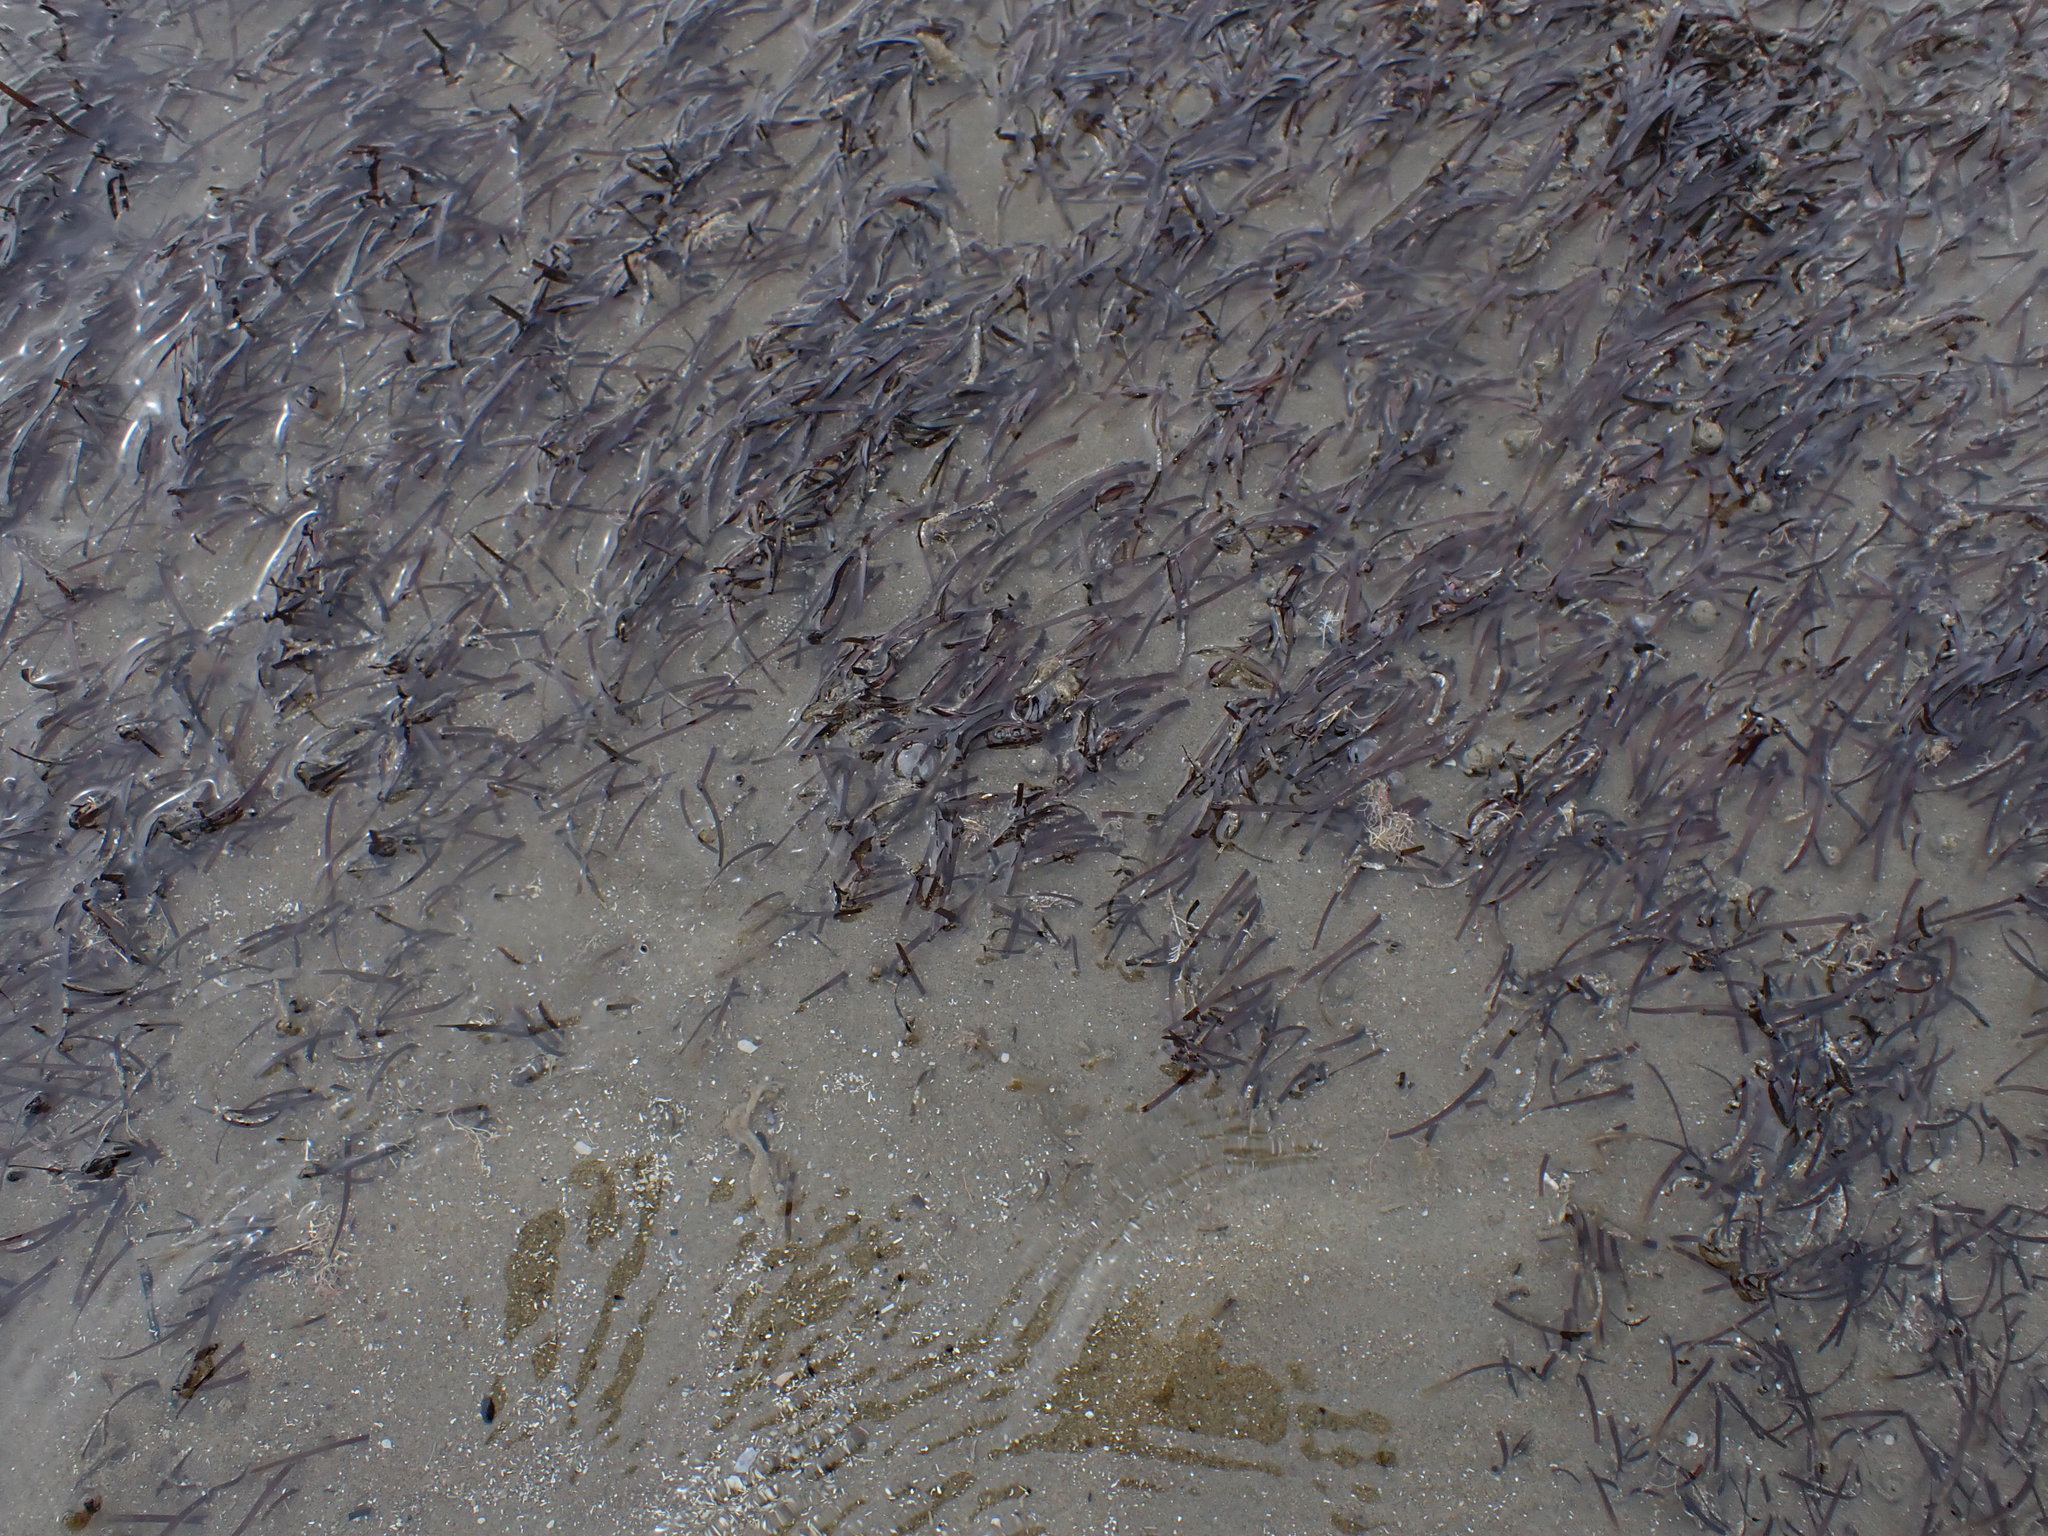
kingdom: Plantae
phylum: Tracheophyta
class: Liliopsida
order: Alismatales
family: Zosteraceae
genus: Zostera
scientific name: Zostera novazelandica
